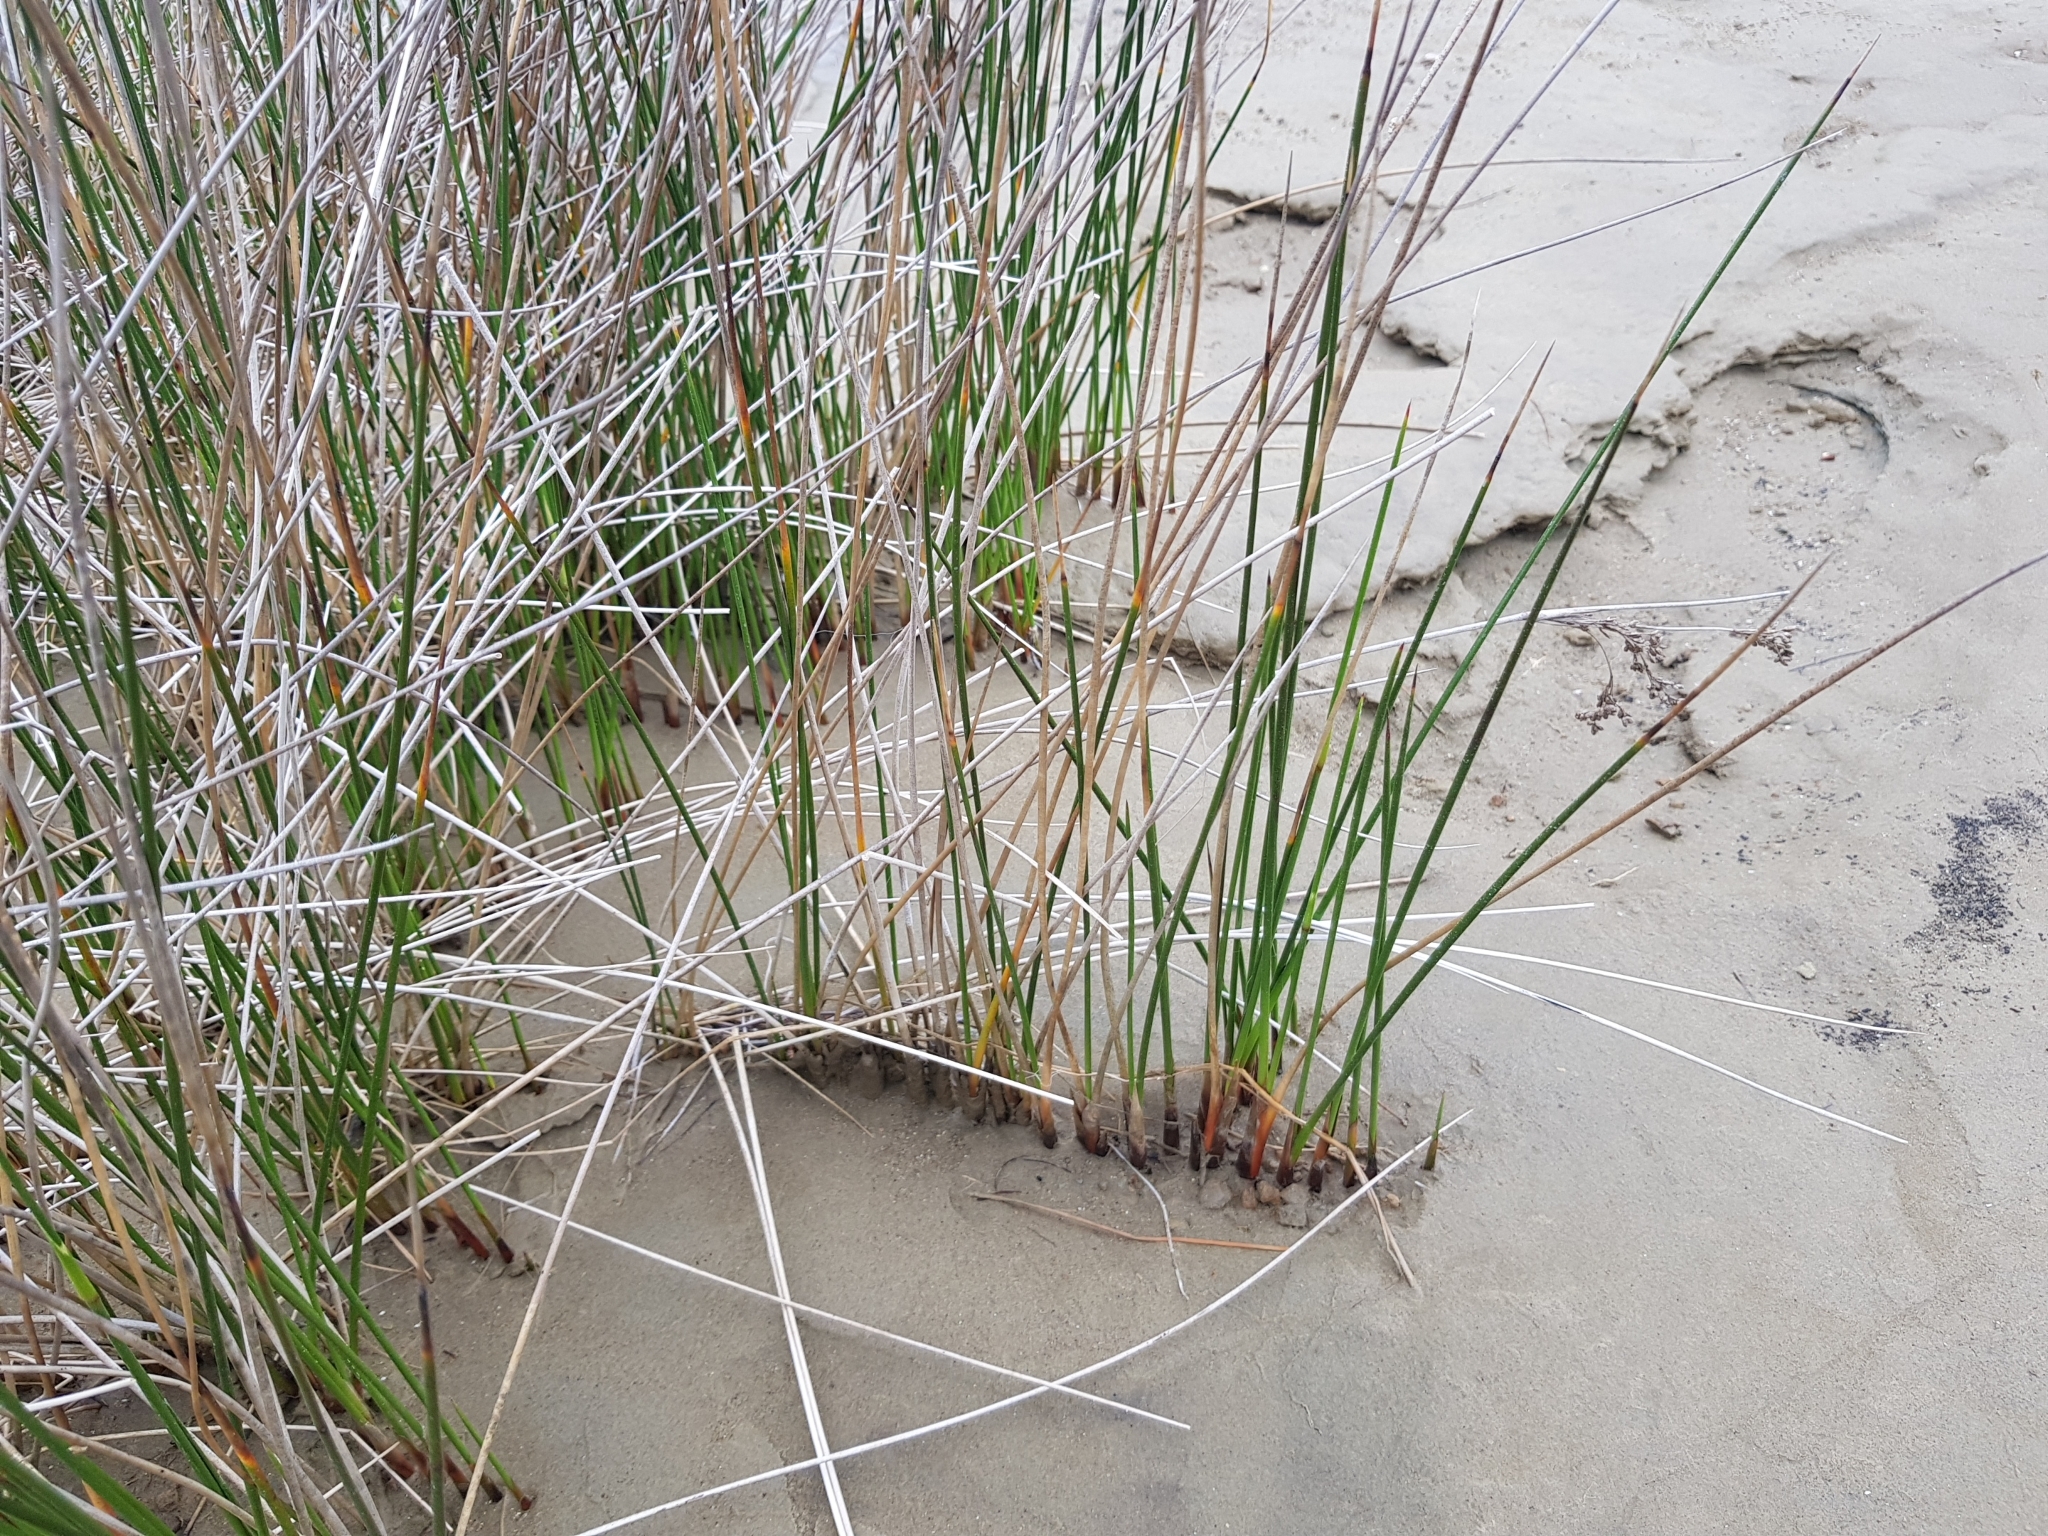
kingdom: Plantae
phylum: Tracheophyta
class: Liliopsida
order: Poales
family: Juncaceae
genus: Juncus
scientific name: Juncus maritimus
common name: Sea rush
